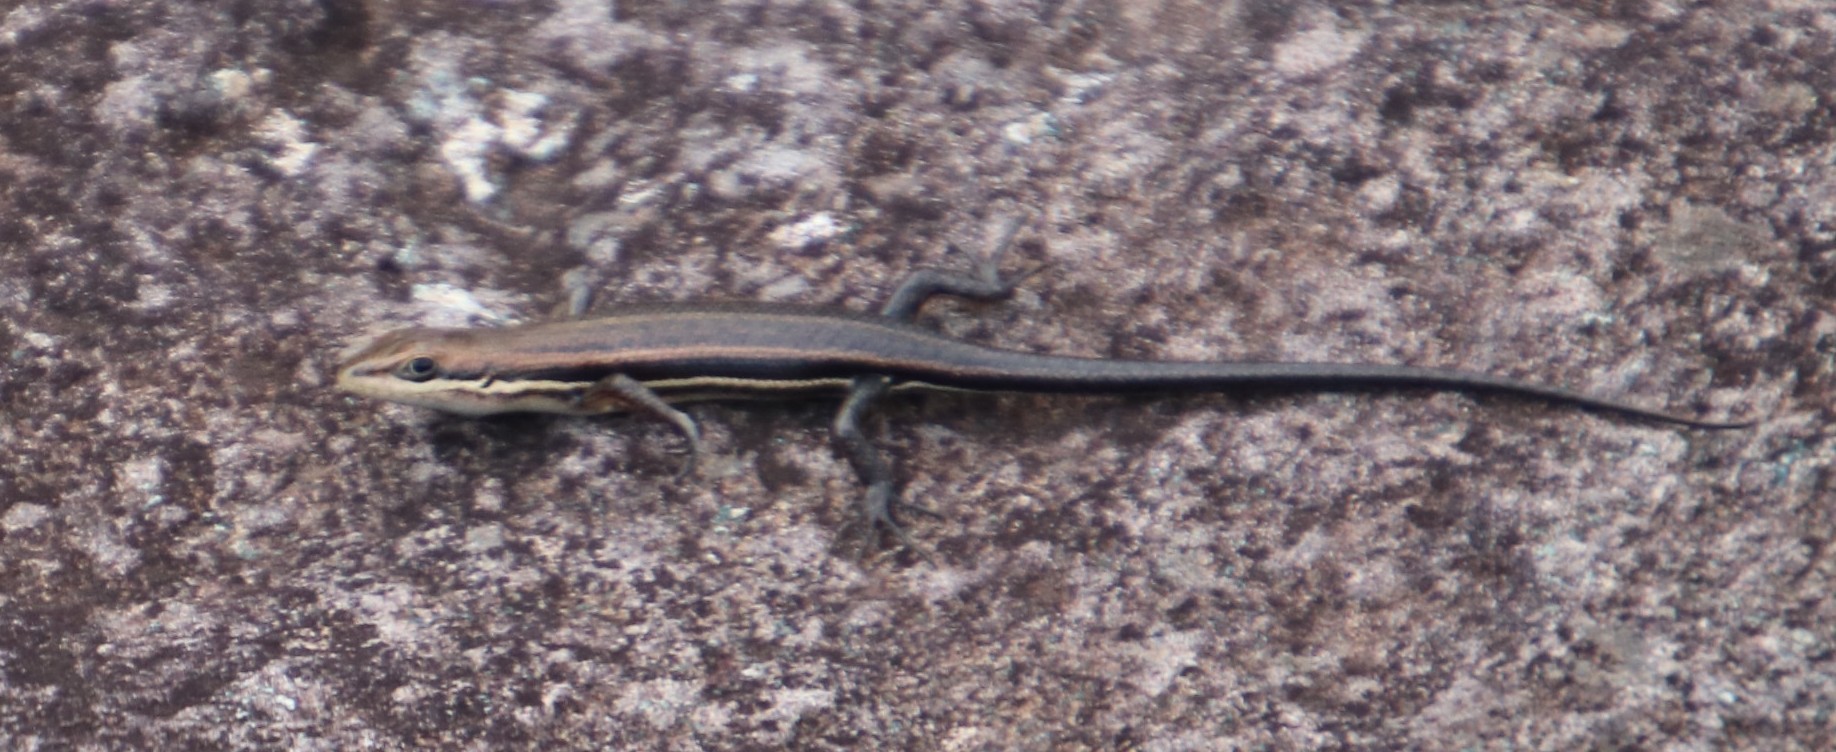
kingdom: Animalia
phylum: Chordata
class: Squamata
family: Scincidae
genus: Trachylepis
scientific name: Trachylepis varia
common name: Eastern variable skink
